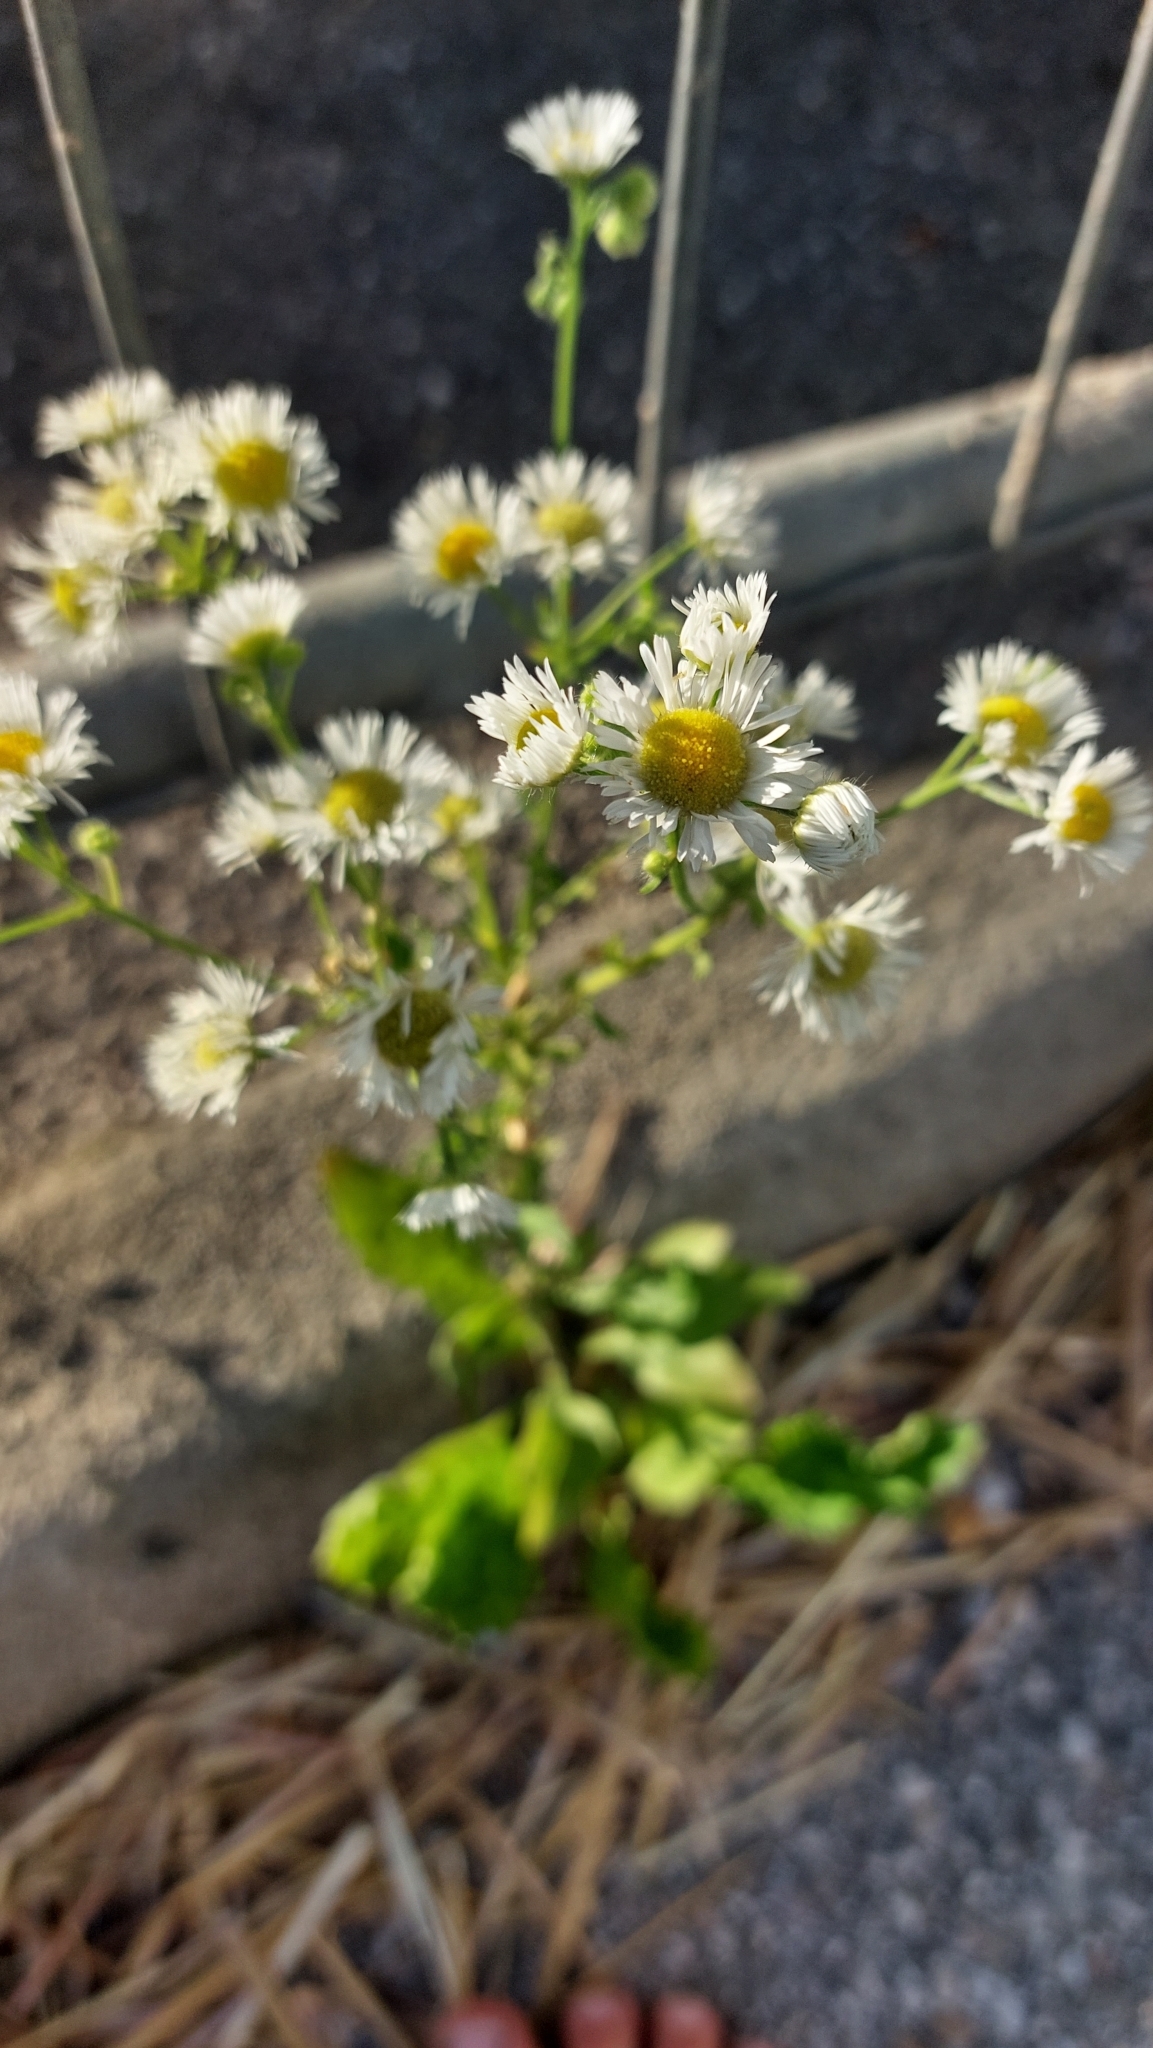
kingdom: Plantae
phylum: Tracheophyta
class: Magnoliopsida
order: Asterales
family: Asteraceae
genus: Erigeron
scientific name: Erigeron annuus
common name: Tall fleabane
